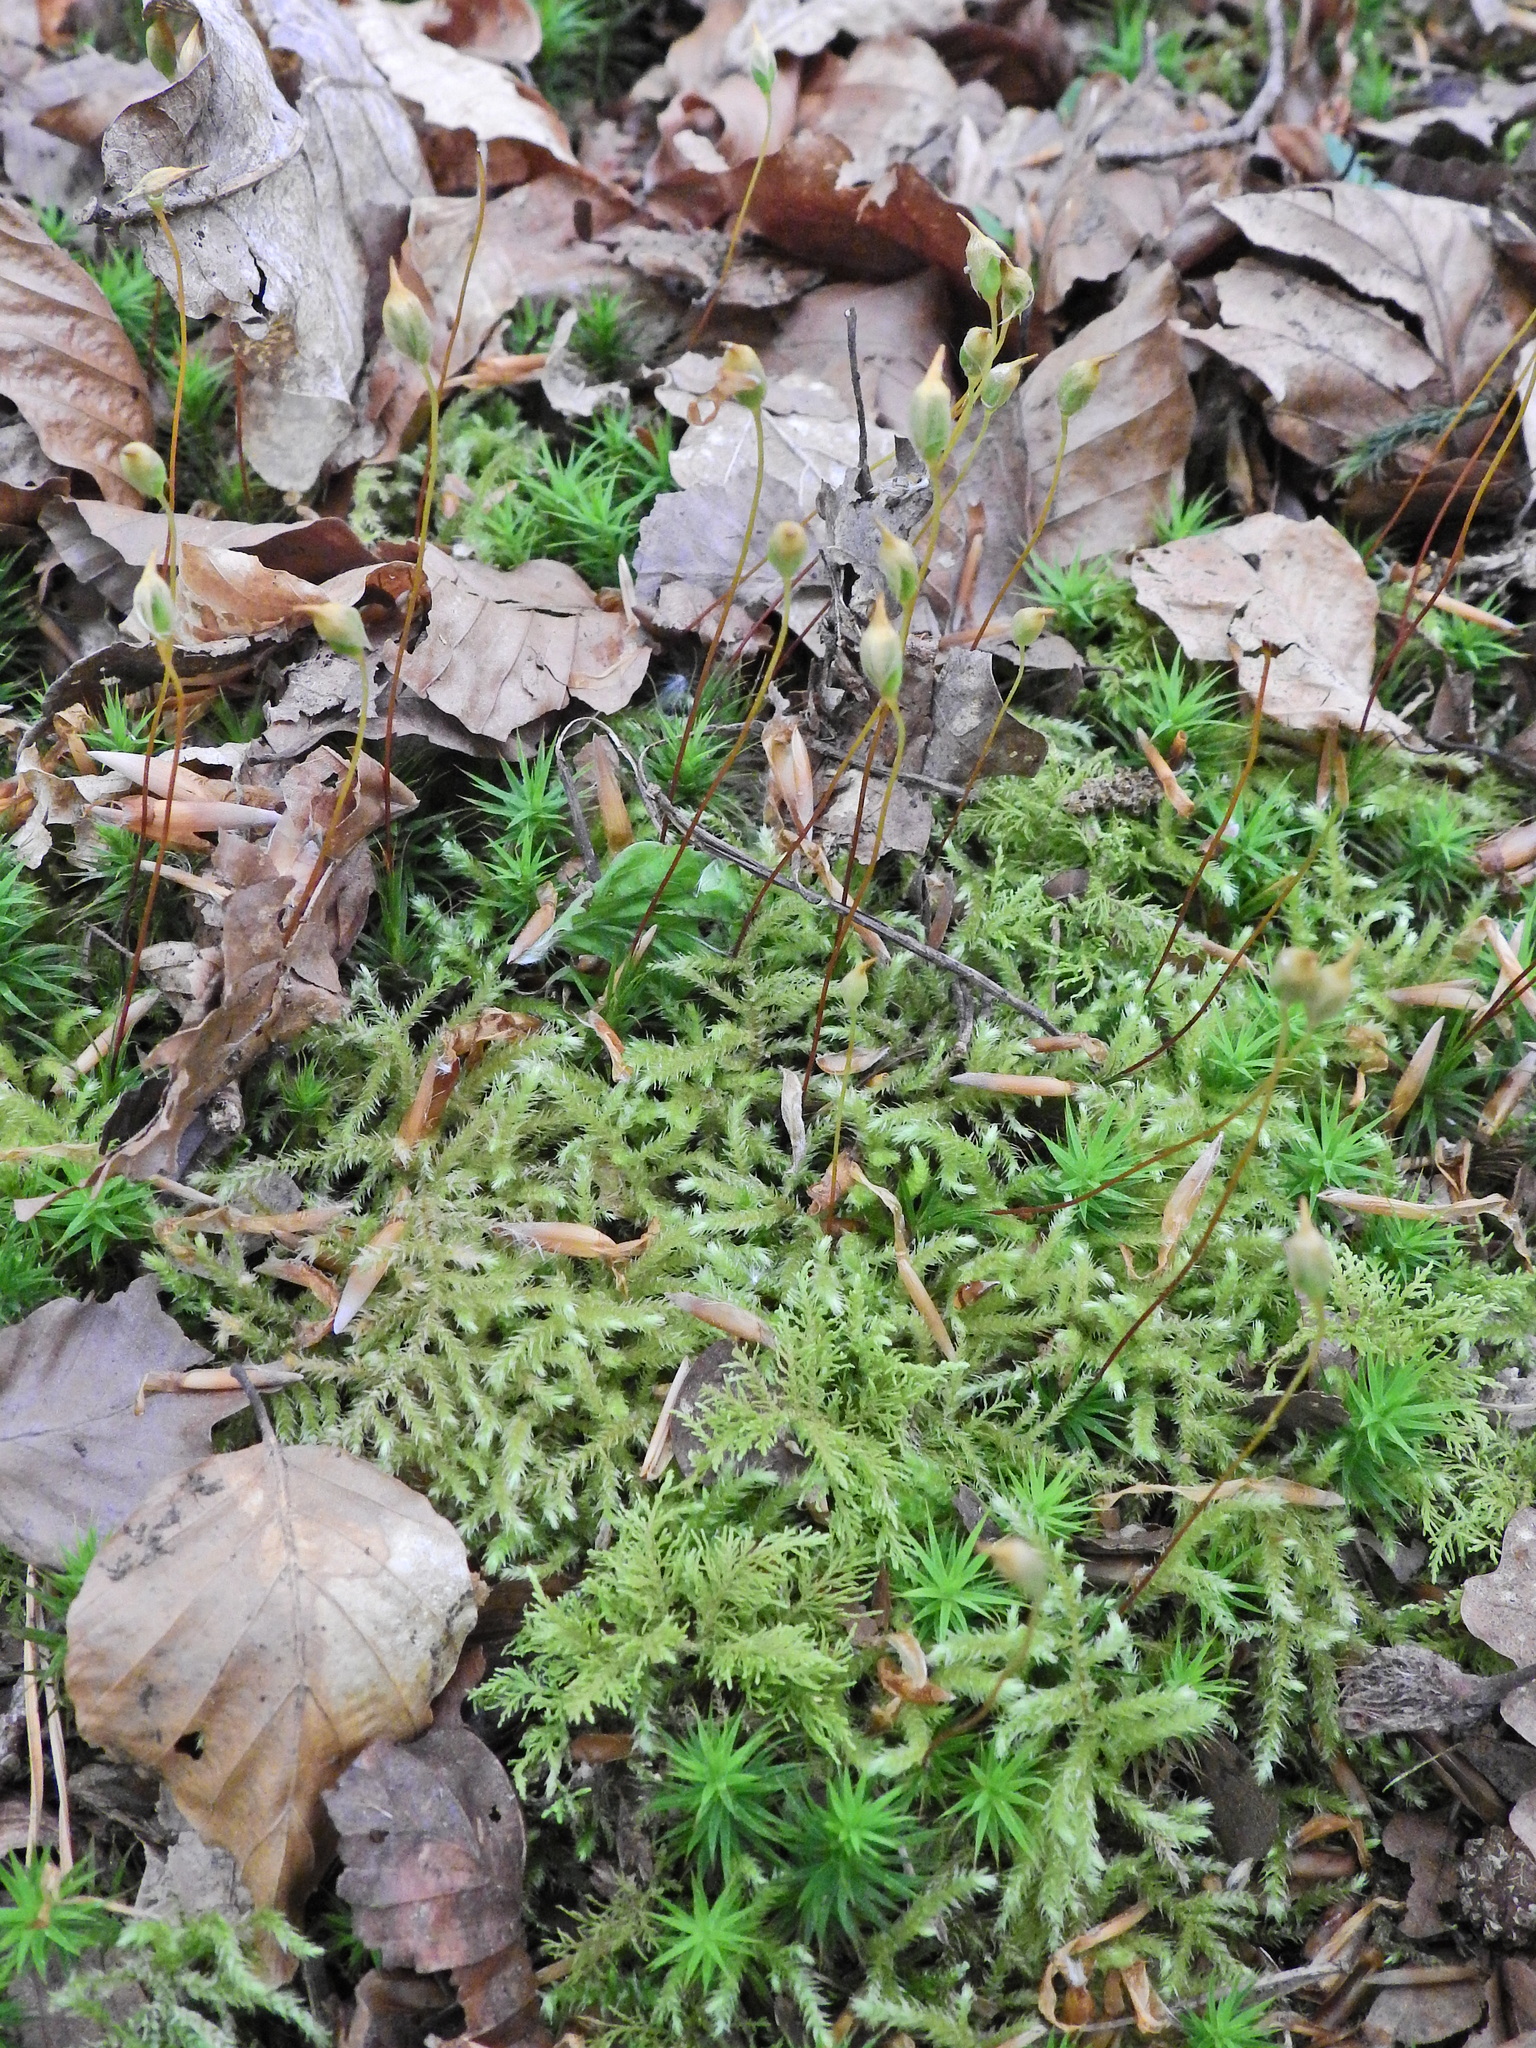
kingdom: Plantae
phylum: Bryophyta
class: Polytrichopsida
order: Polytrichales
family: Polytrichaceae
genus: Polytrichum
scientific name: Polytrichum formosum
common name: Bank haircap moss
